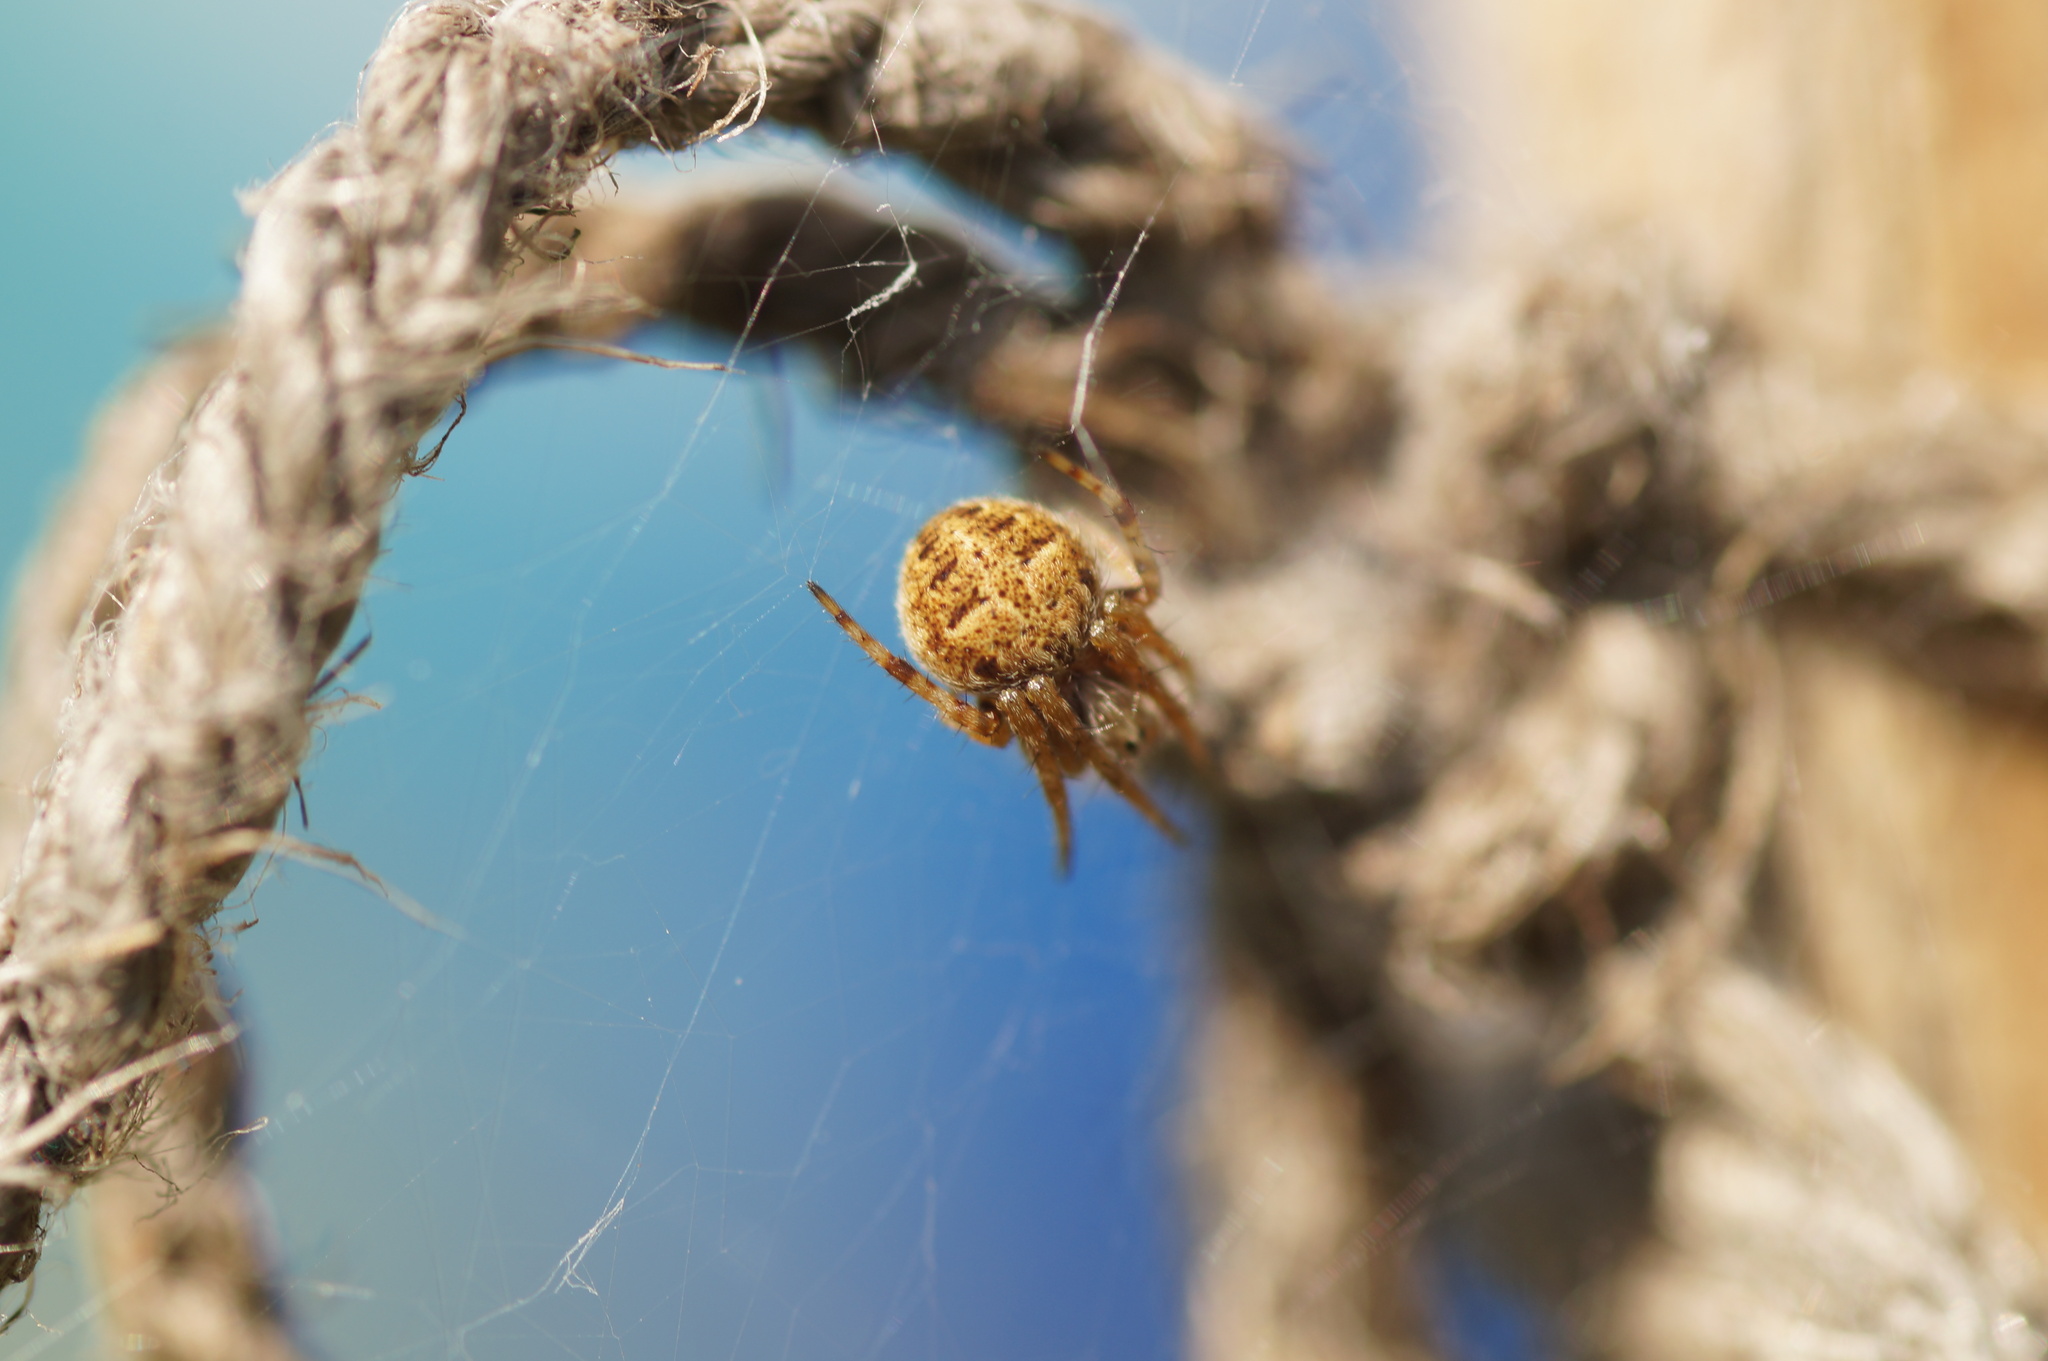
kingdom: Animalia
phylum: Arthropoda
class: Arachnida
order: Araneae
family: Araneidae
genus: Agalenatea
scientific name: Agalenatea redii
